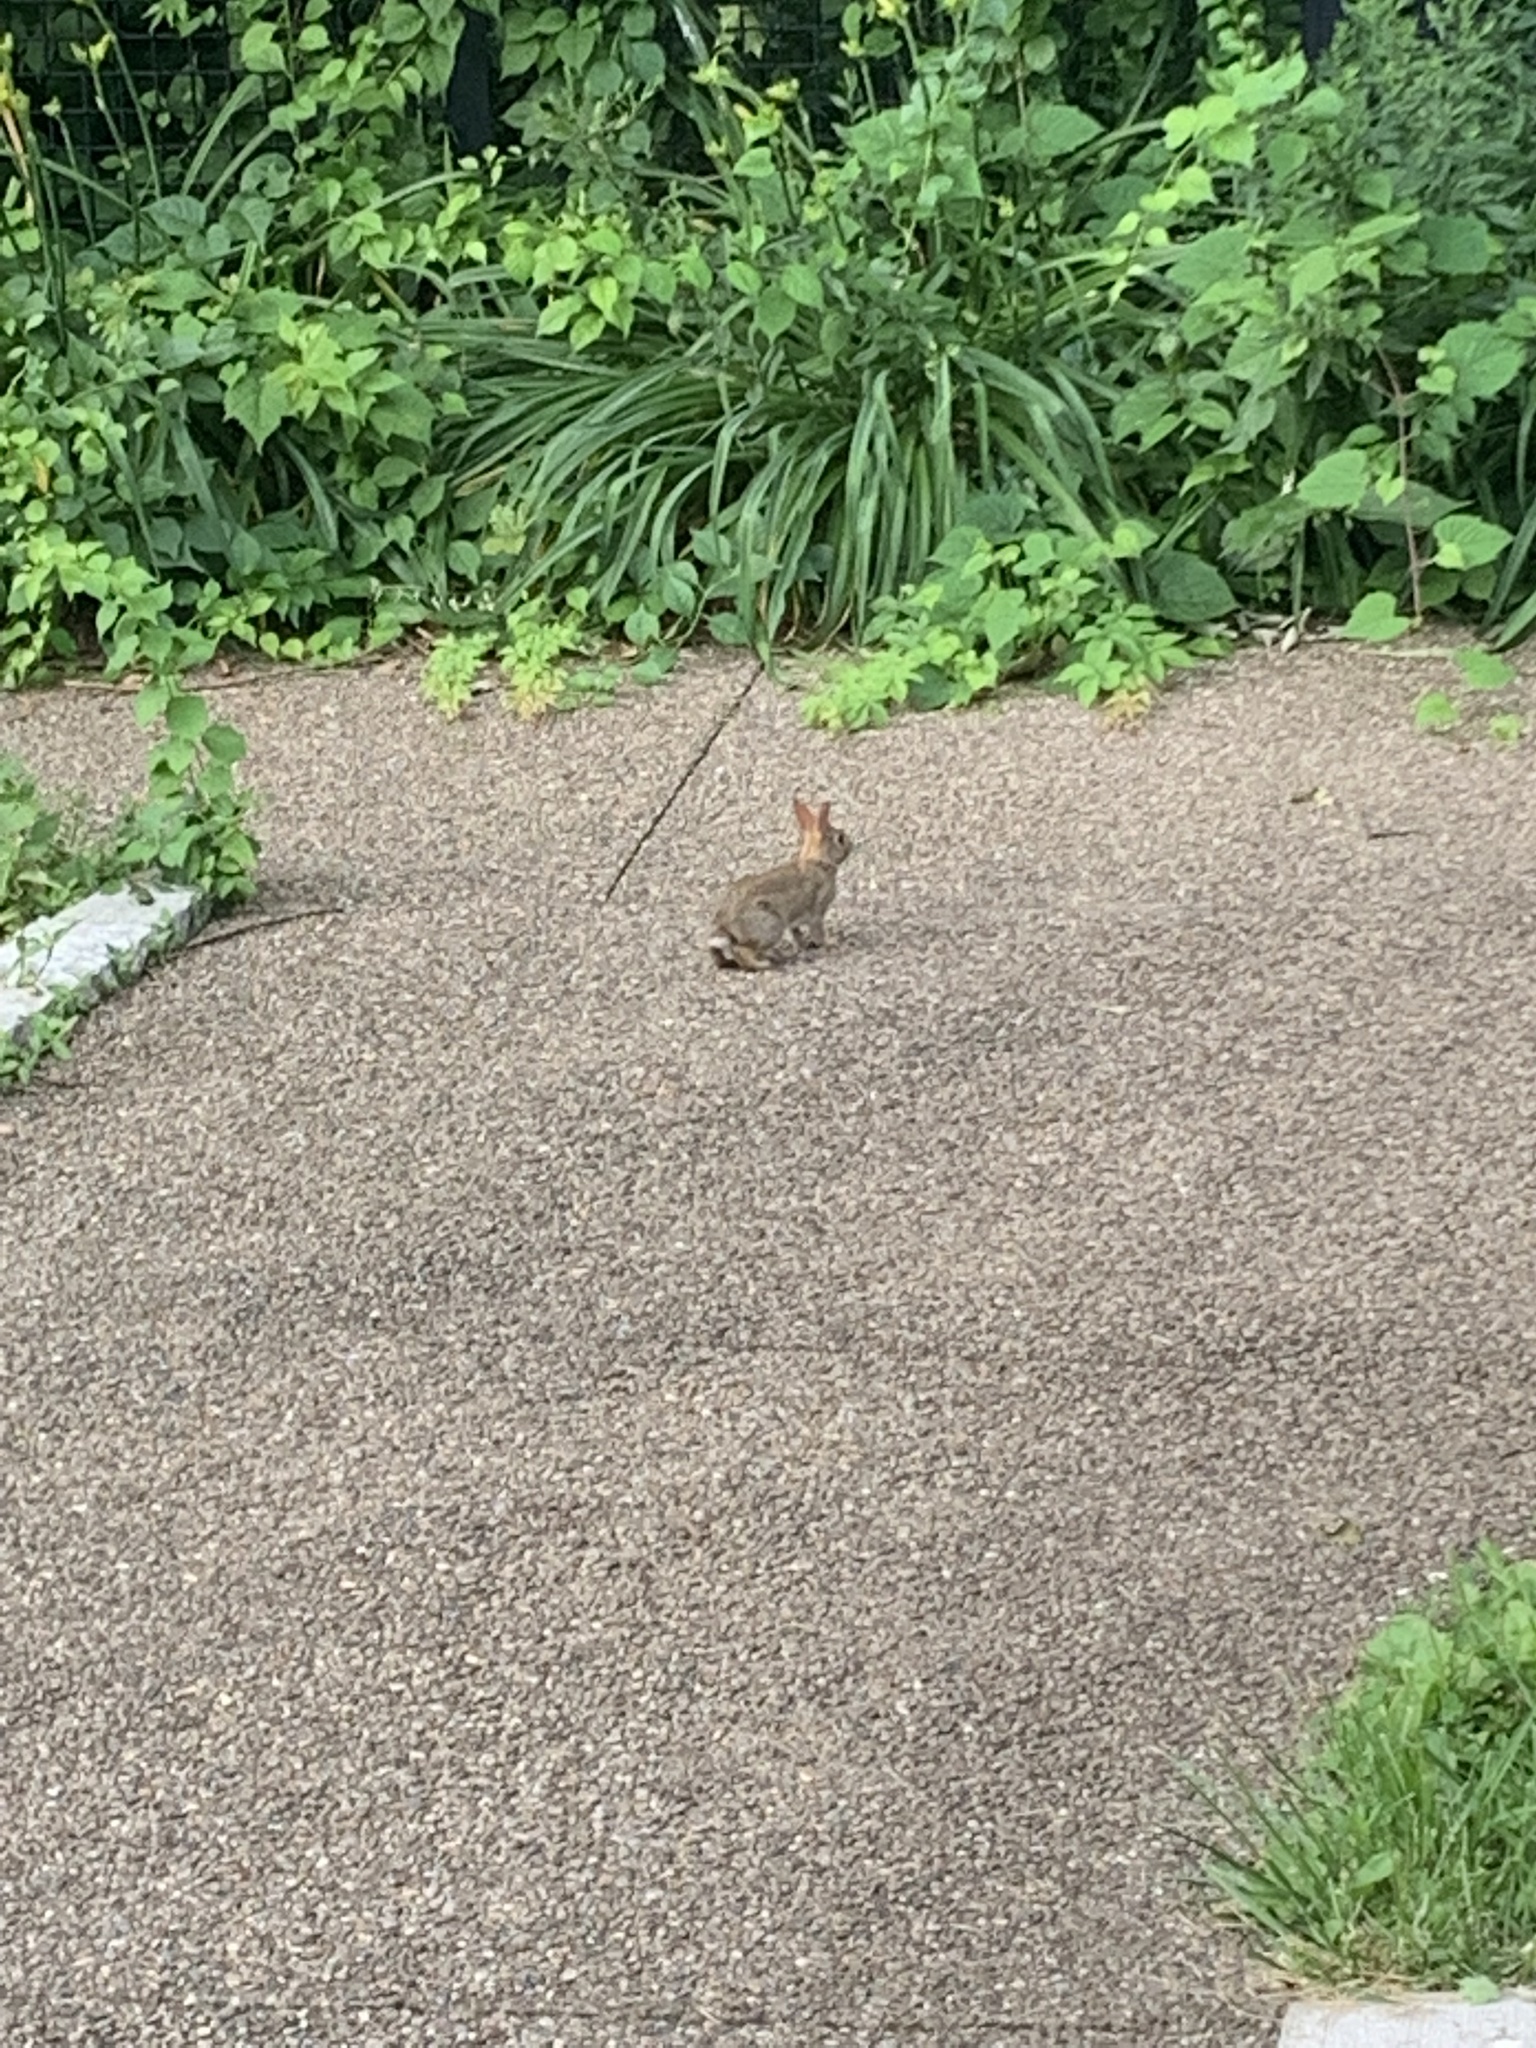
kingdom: Animalia
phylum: Chordata
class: Mammalia
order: Lagomorpha
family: Leporidae
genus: Sylvilagus
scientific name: Sylvilagus floridanus
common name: Eastern cottontail
